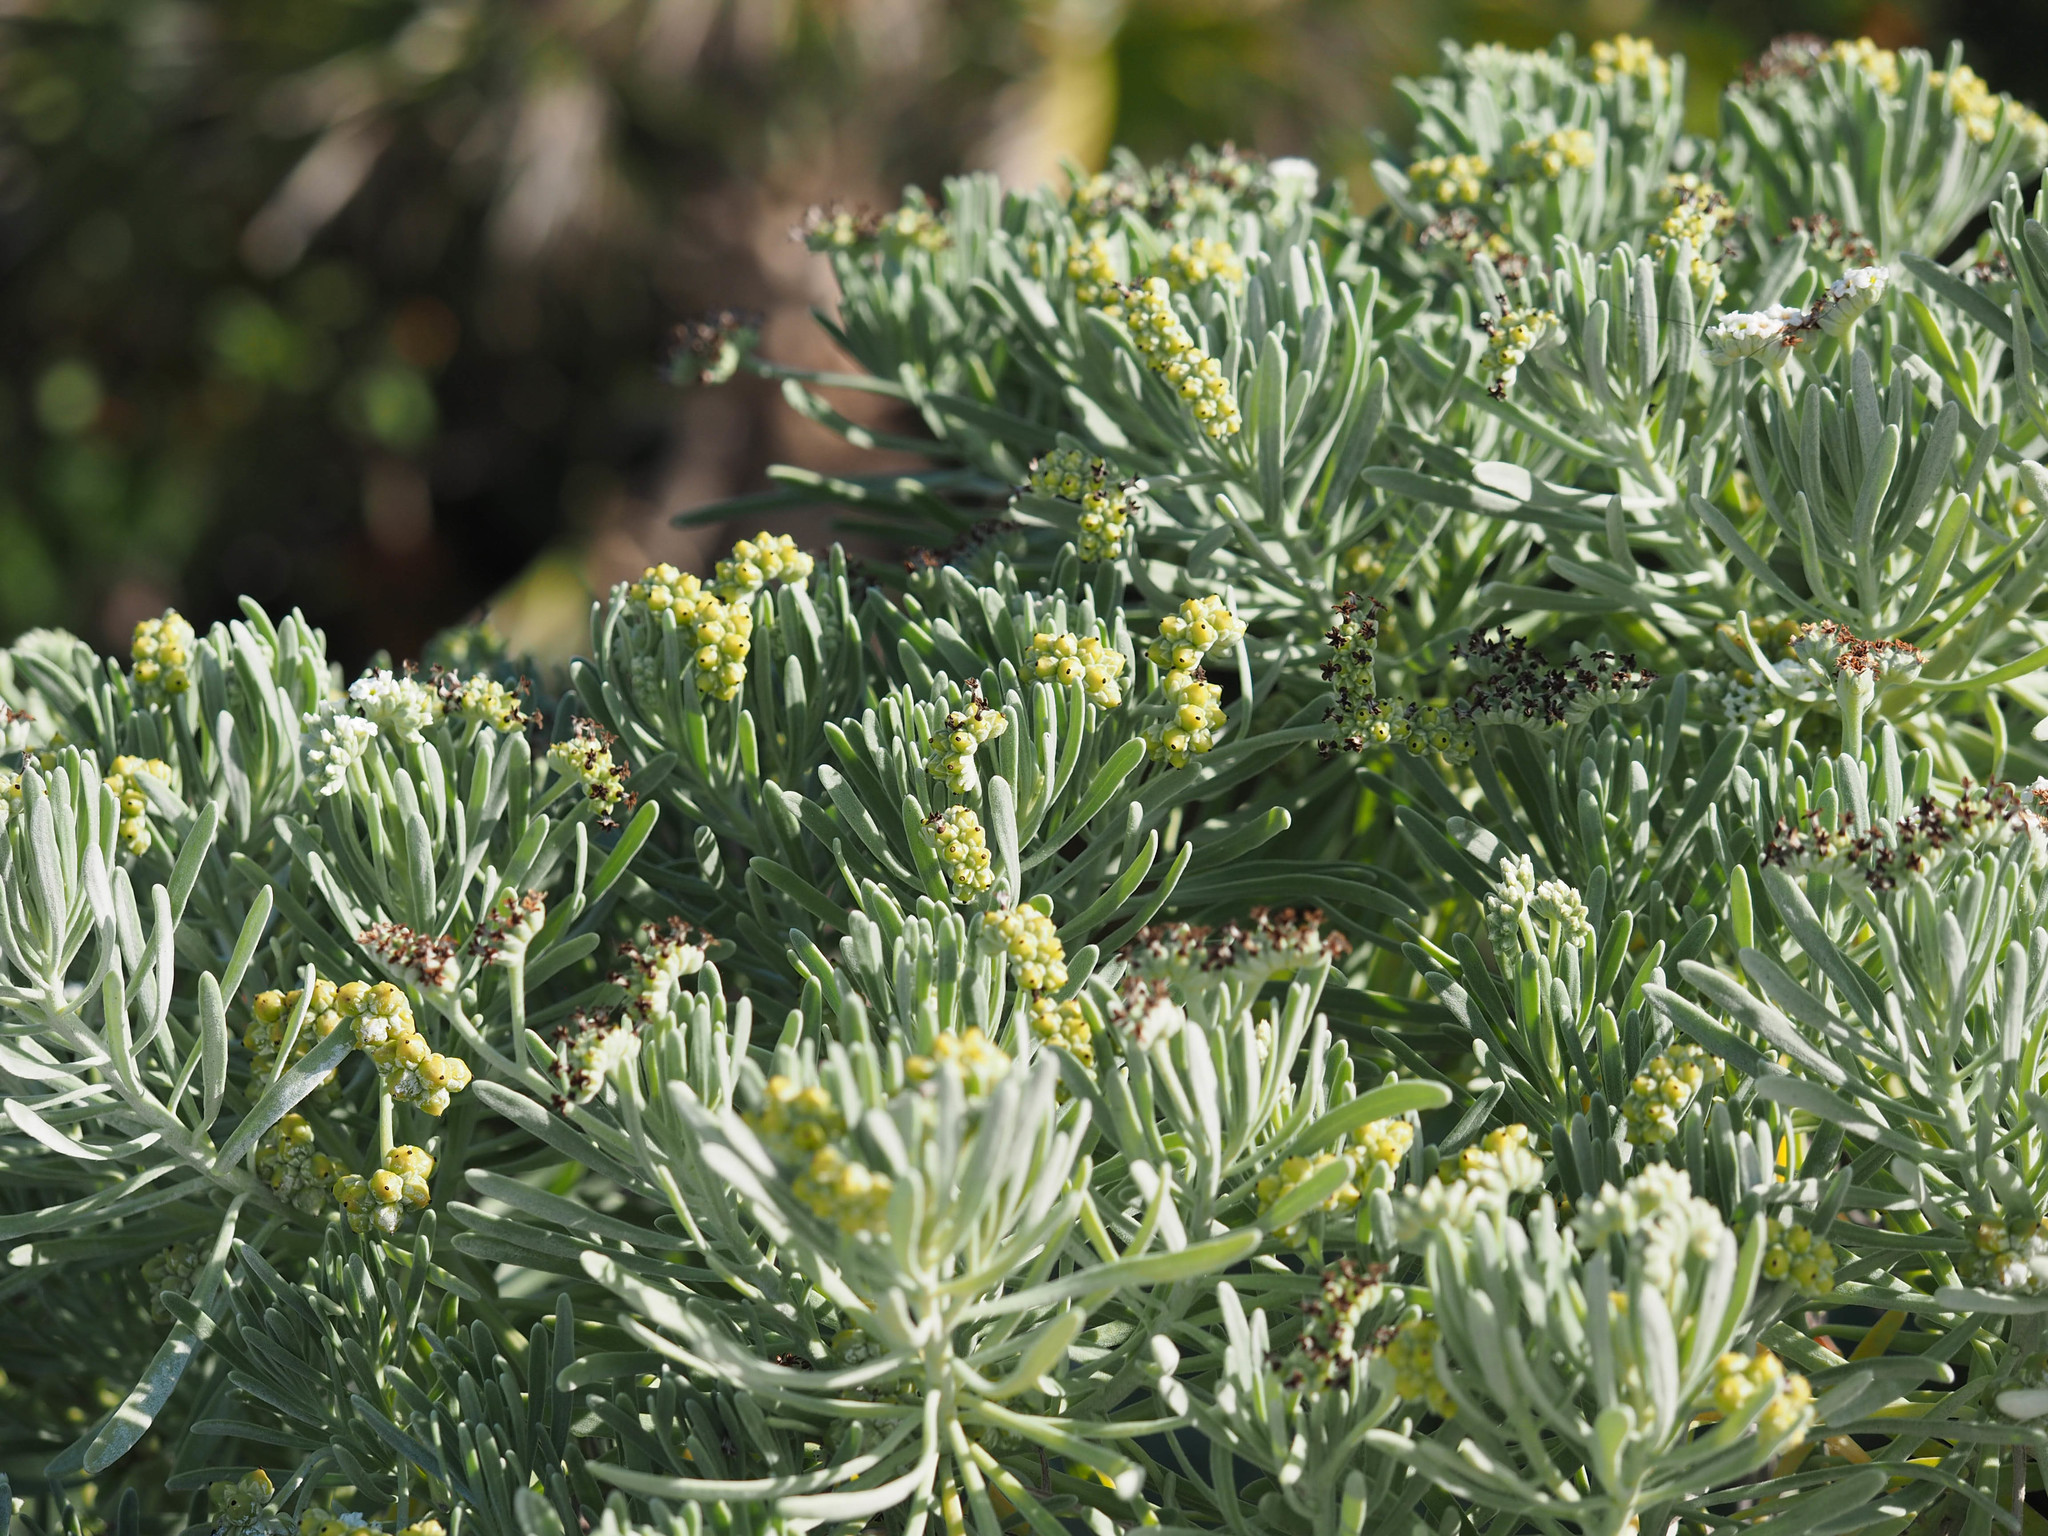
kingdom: Plantae
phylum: Tracheophyta
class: Magnoliopsida
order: Boraginales
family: Heliotropiaceae
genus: Tournefortia
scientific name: Tournefortia gnaphalodes
